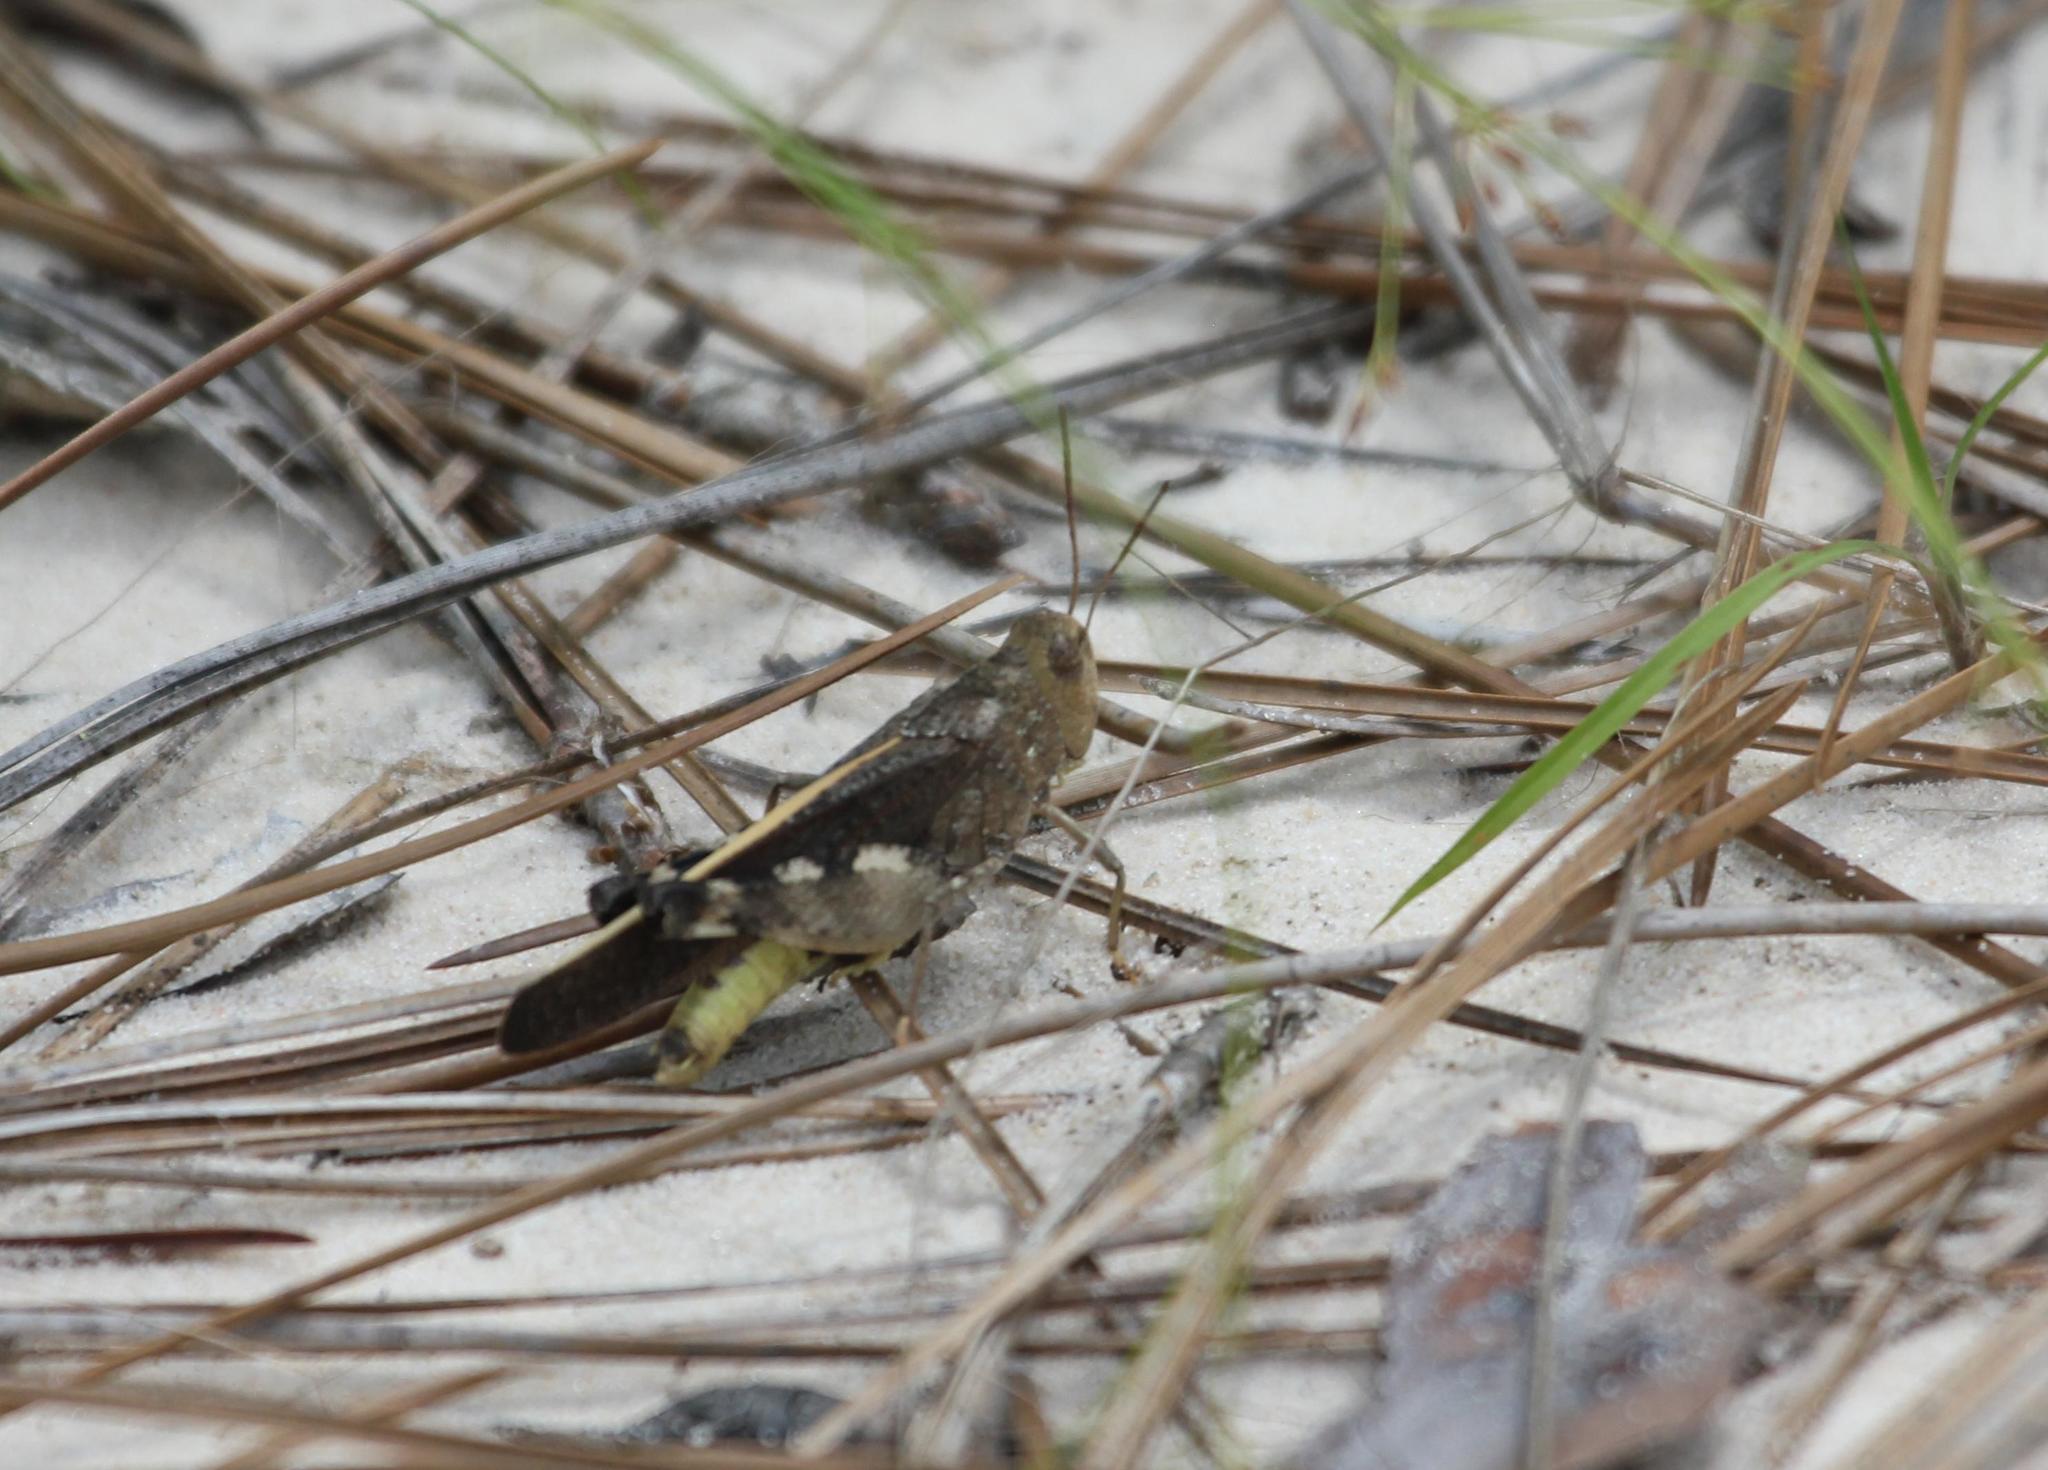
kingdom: Animalia
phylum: Arthropoda
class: Insecta
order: Orthoptera
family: Acrididae
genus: Arphia
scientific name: Arphia granulata
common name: Southern yellow-winged grasshopper
